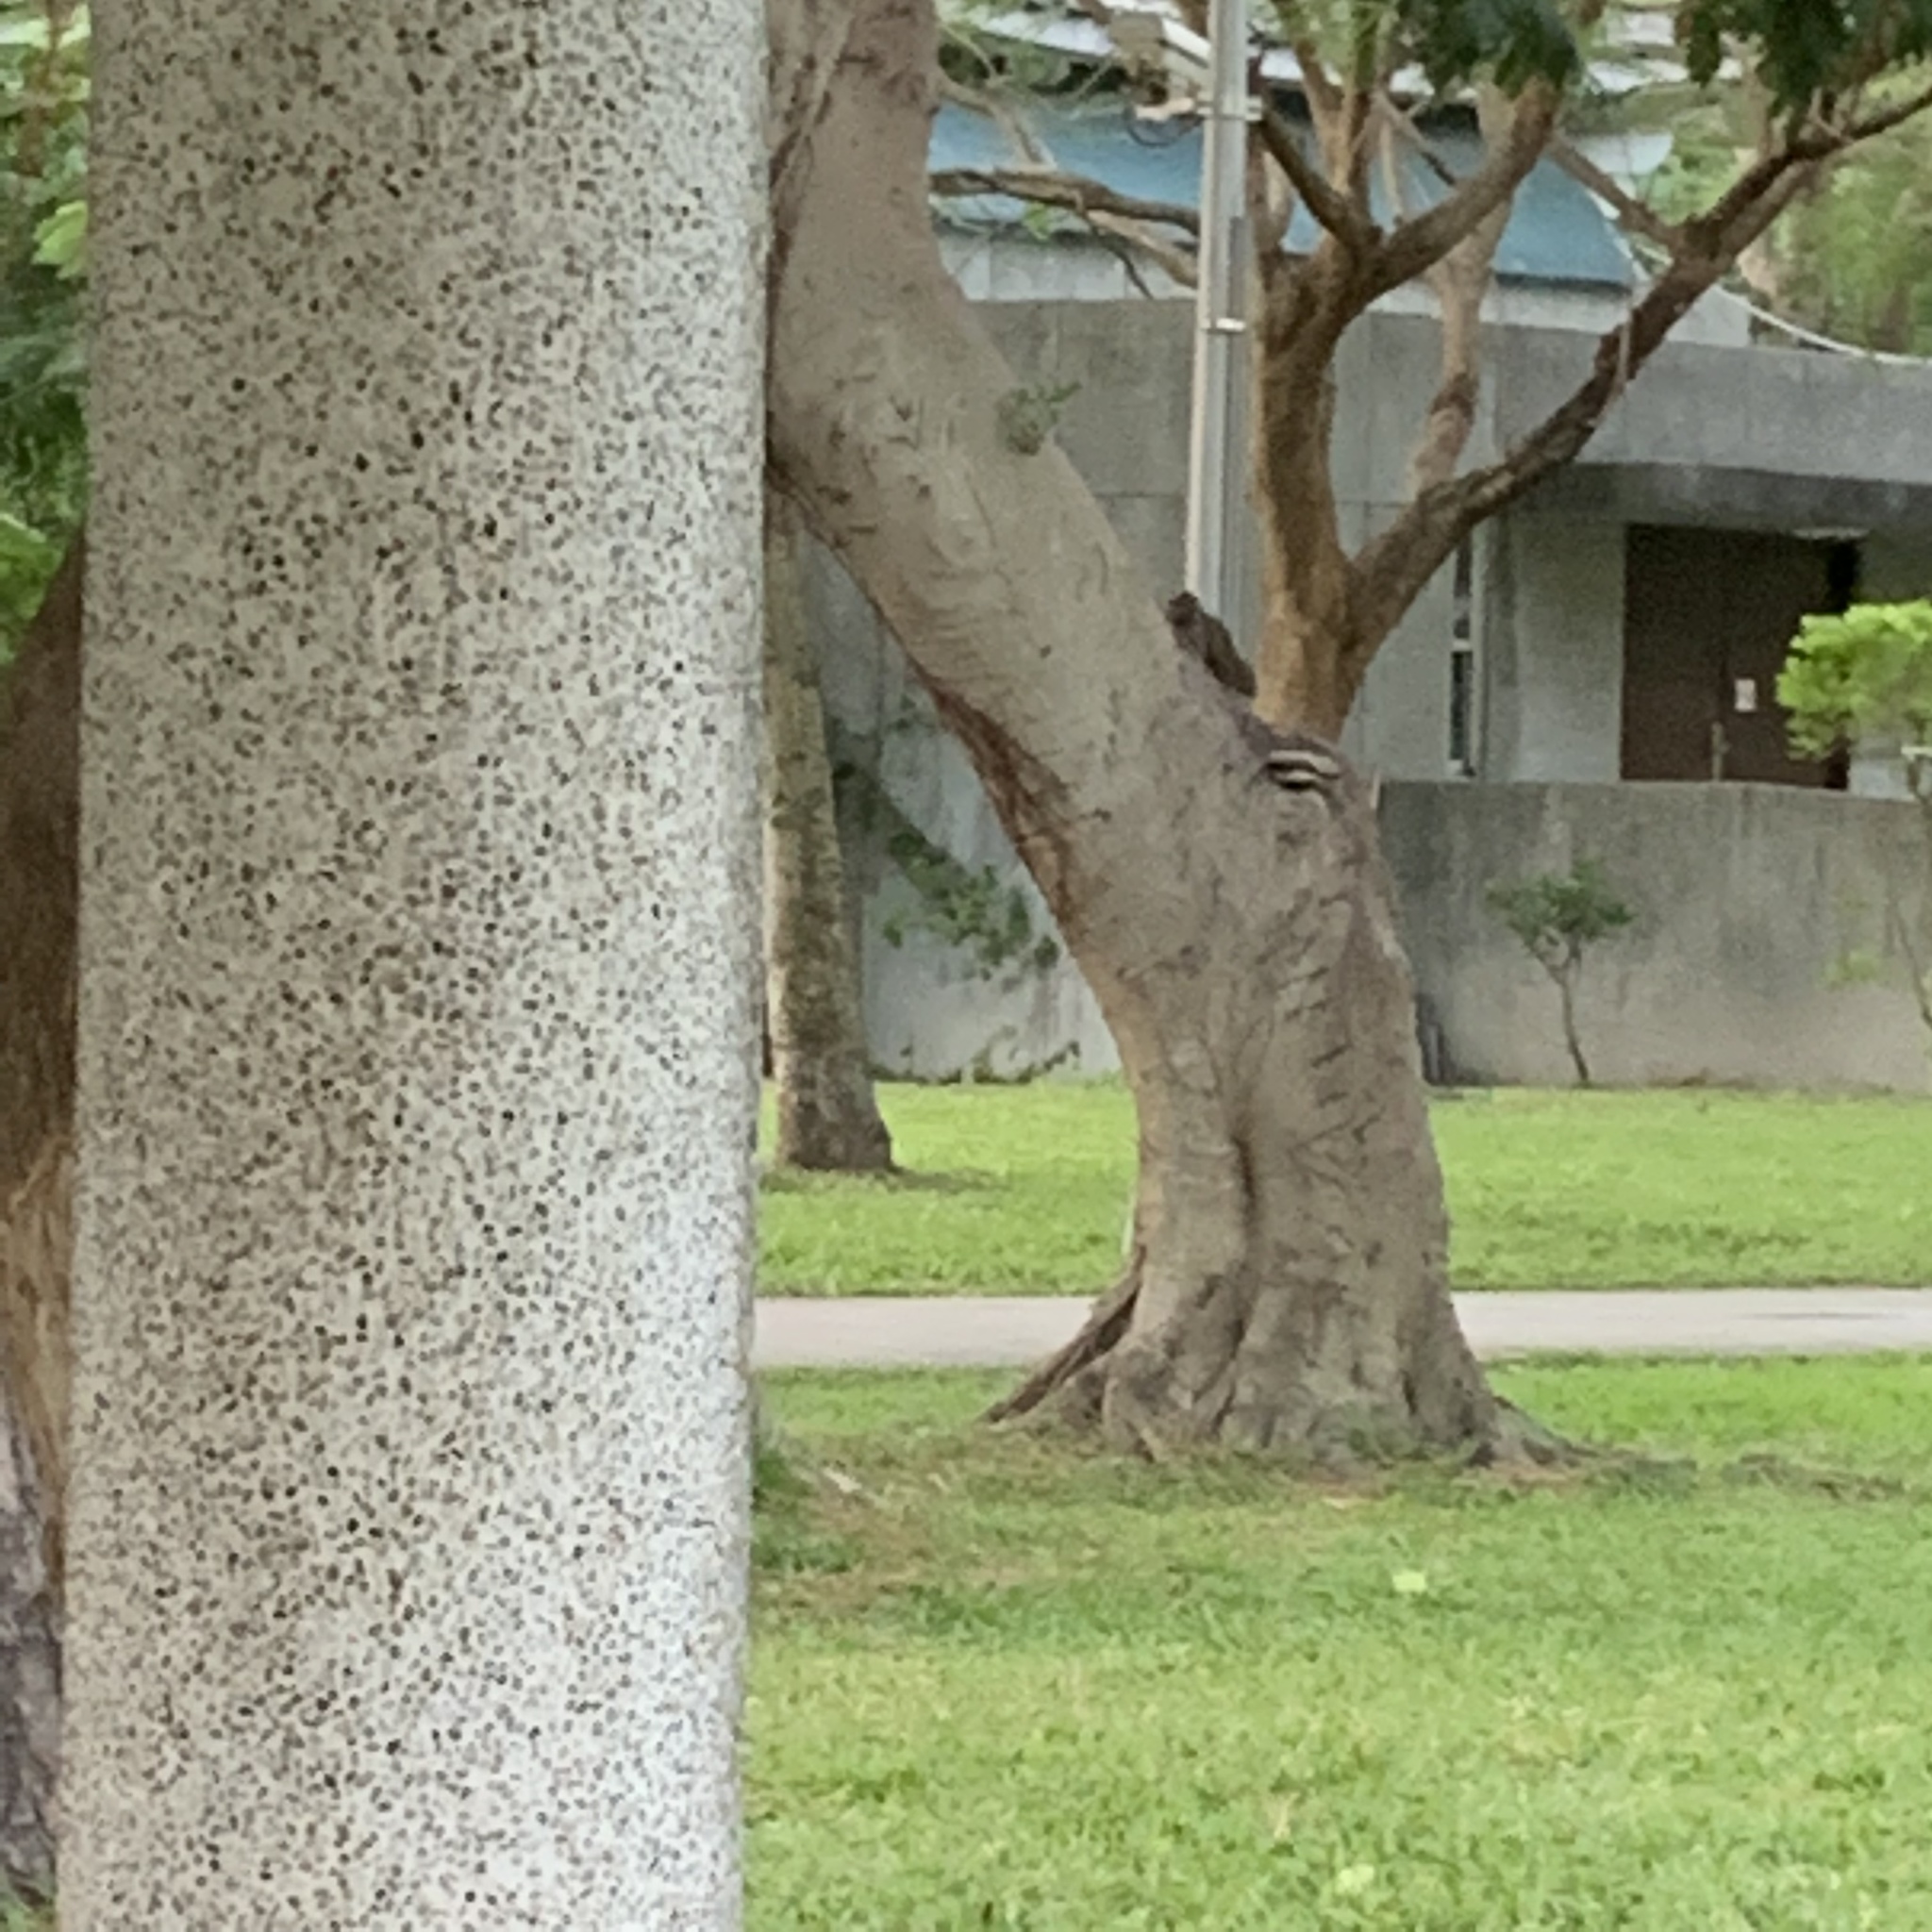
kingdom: Animalia
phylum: Chordata
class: Mammalia
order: Rodentia
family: Sciuridae
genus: Callosciurus
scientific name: Callosciurus erythraeus
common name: Pallas's squirrel
